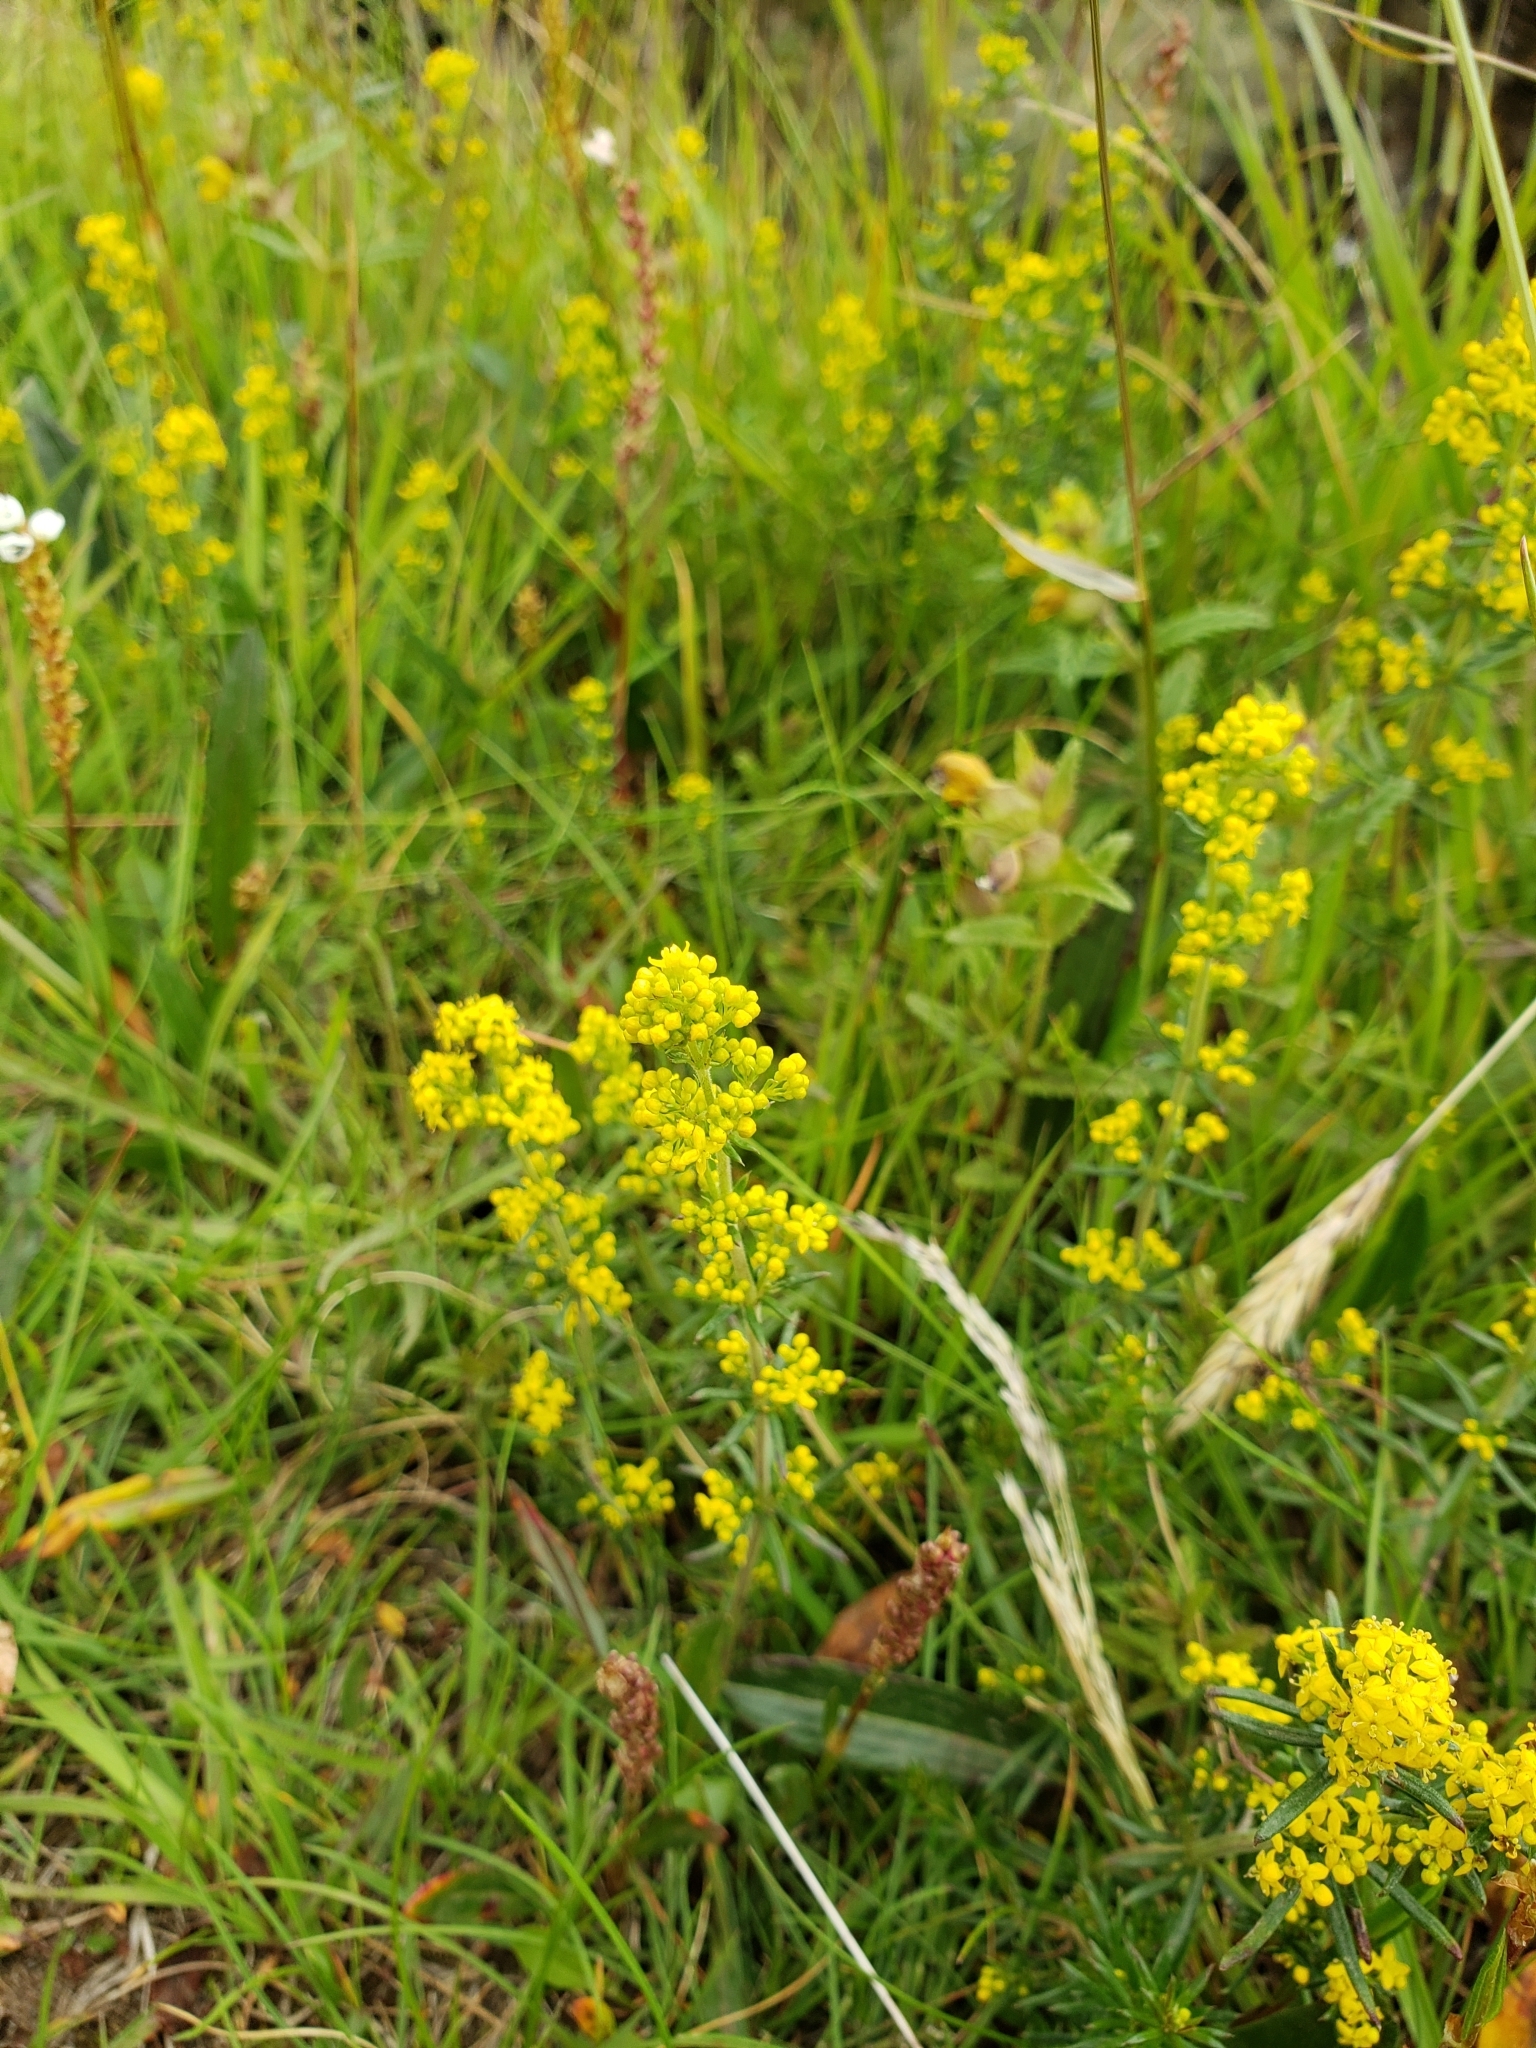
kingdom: Plantae
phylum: Tracheophyta
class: Magnoliopsida
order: Gentianales
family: Rubiaceae
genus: Galium
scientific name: Galium verum
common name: Lady's bedstraw
